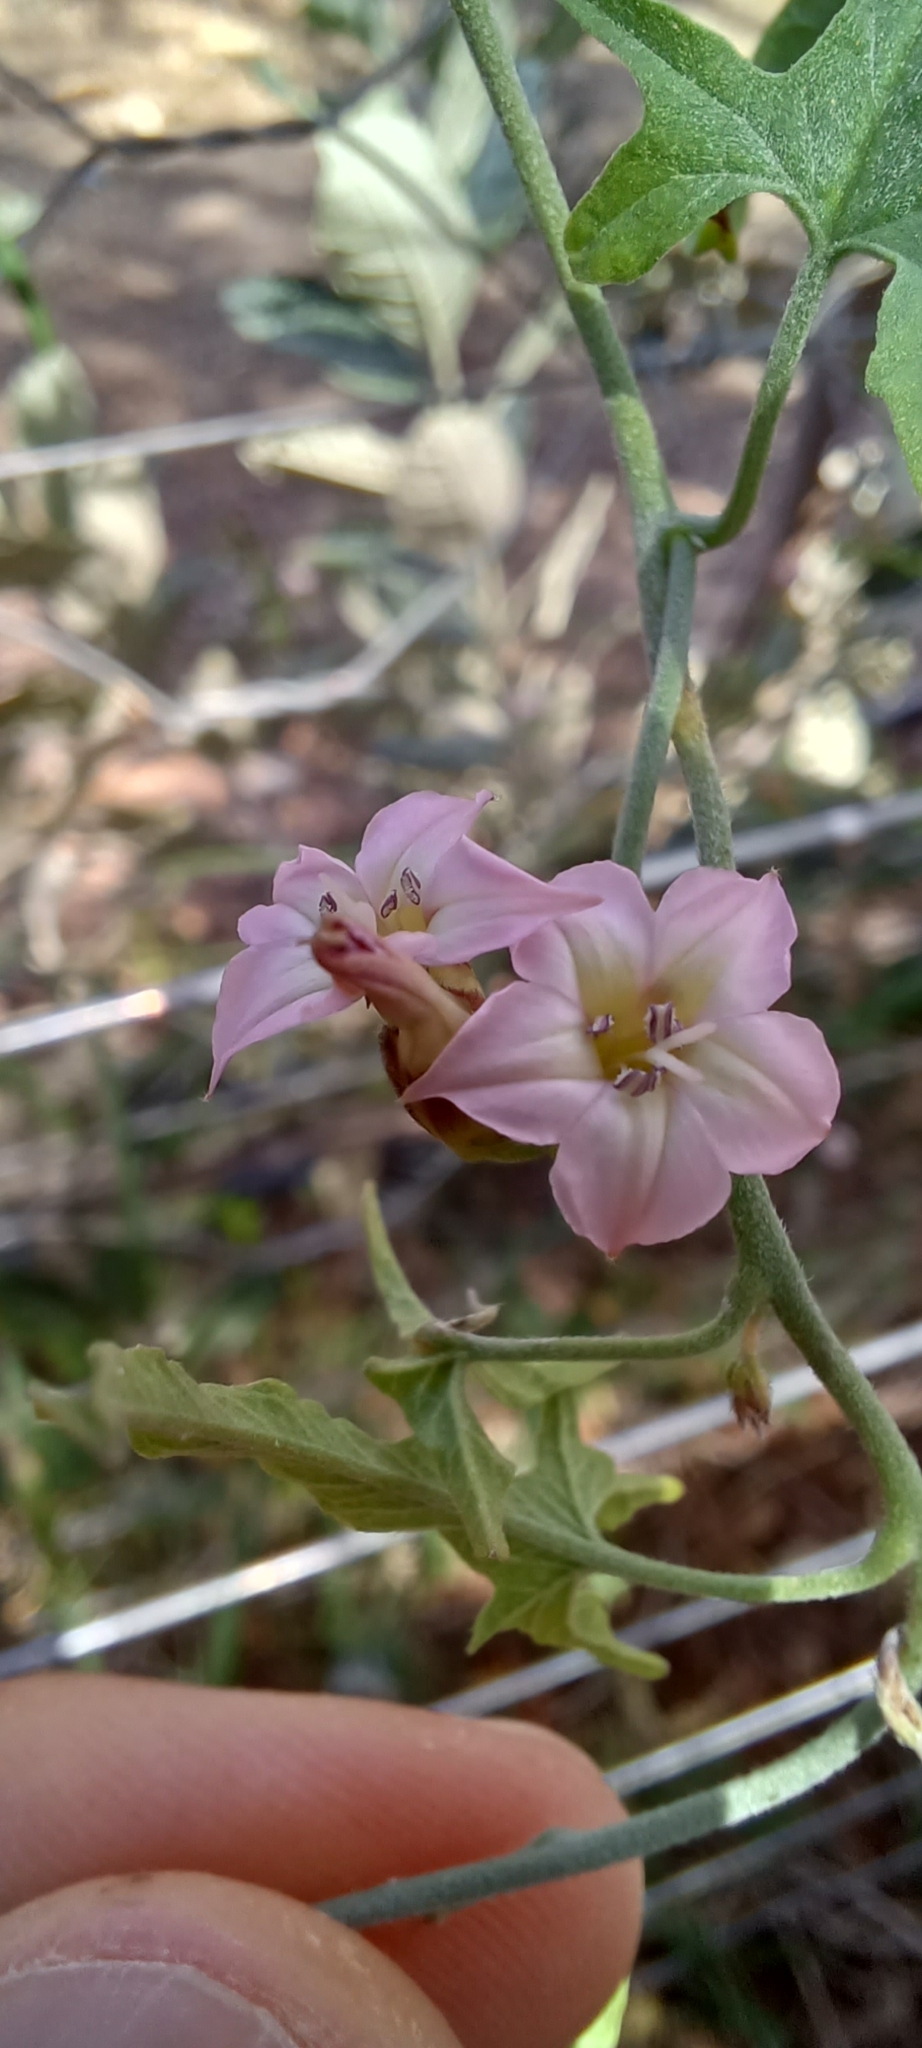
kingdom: Plantae
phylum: Tracheophyta
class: Magnoliopsida
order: Solanales
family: Convolvulaceae
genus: Convolvulus
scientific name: Convolvulus sagittatus
